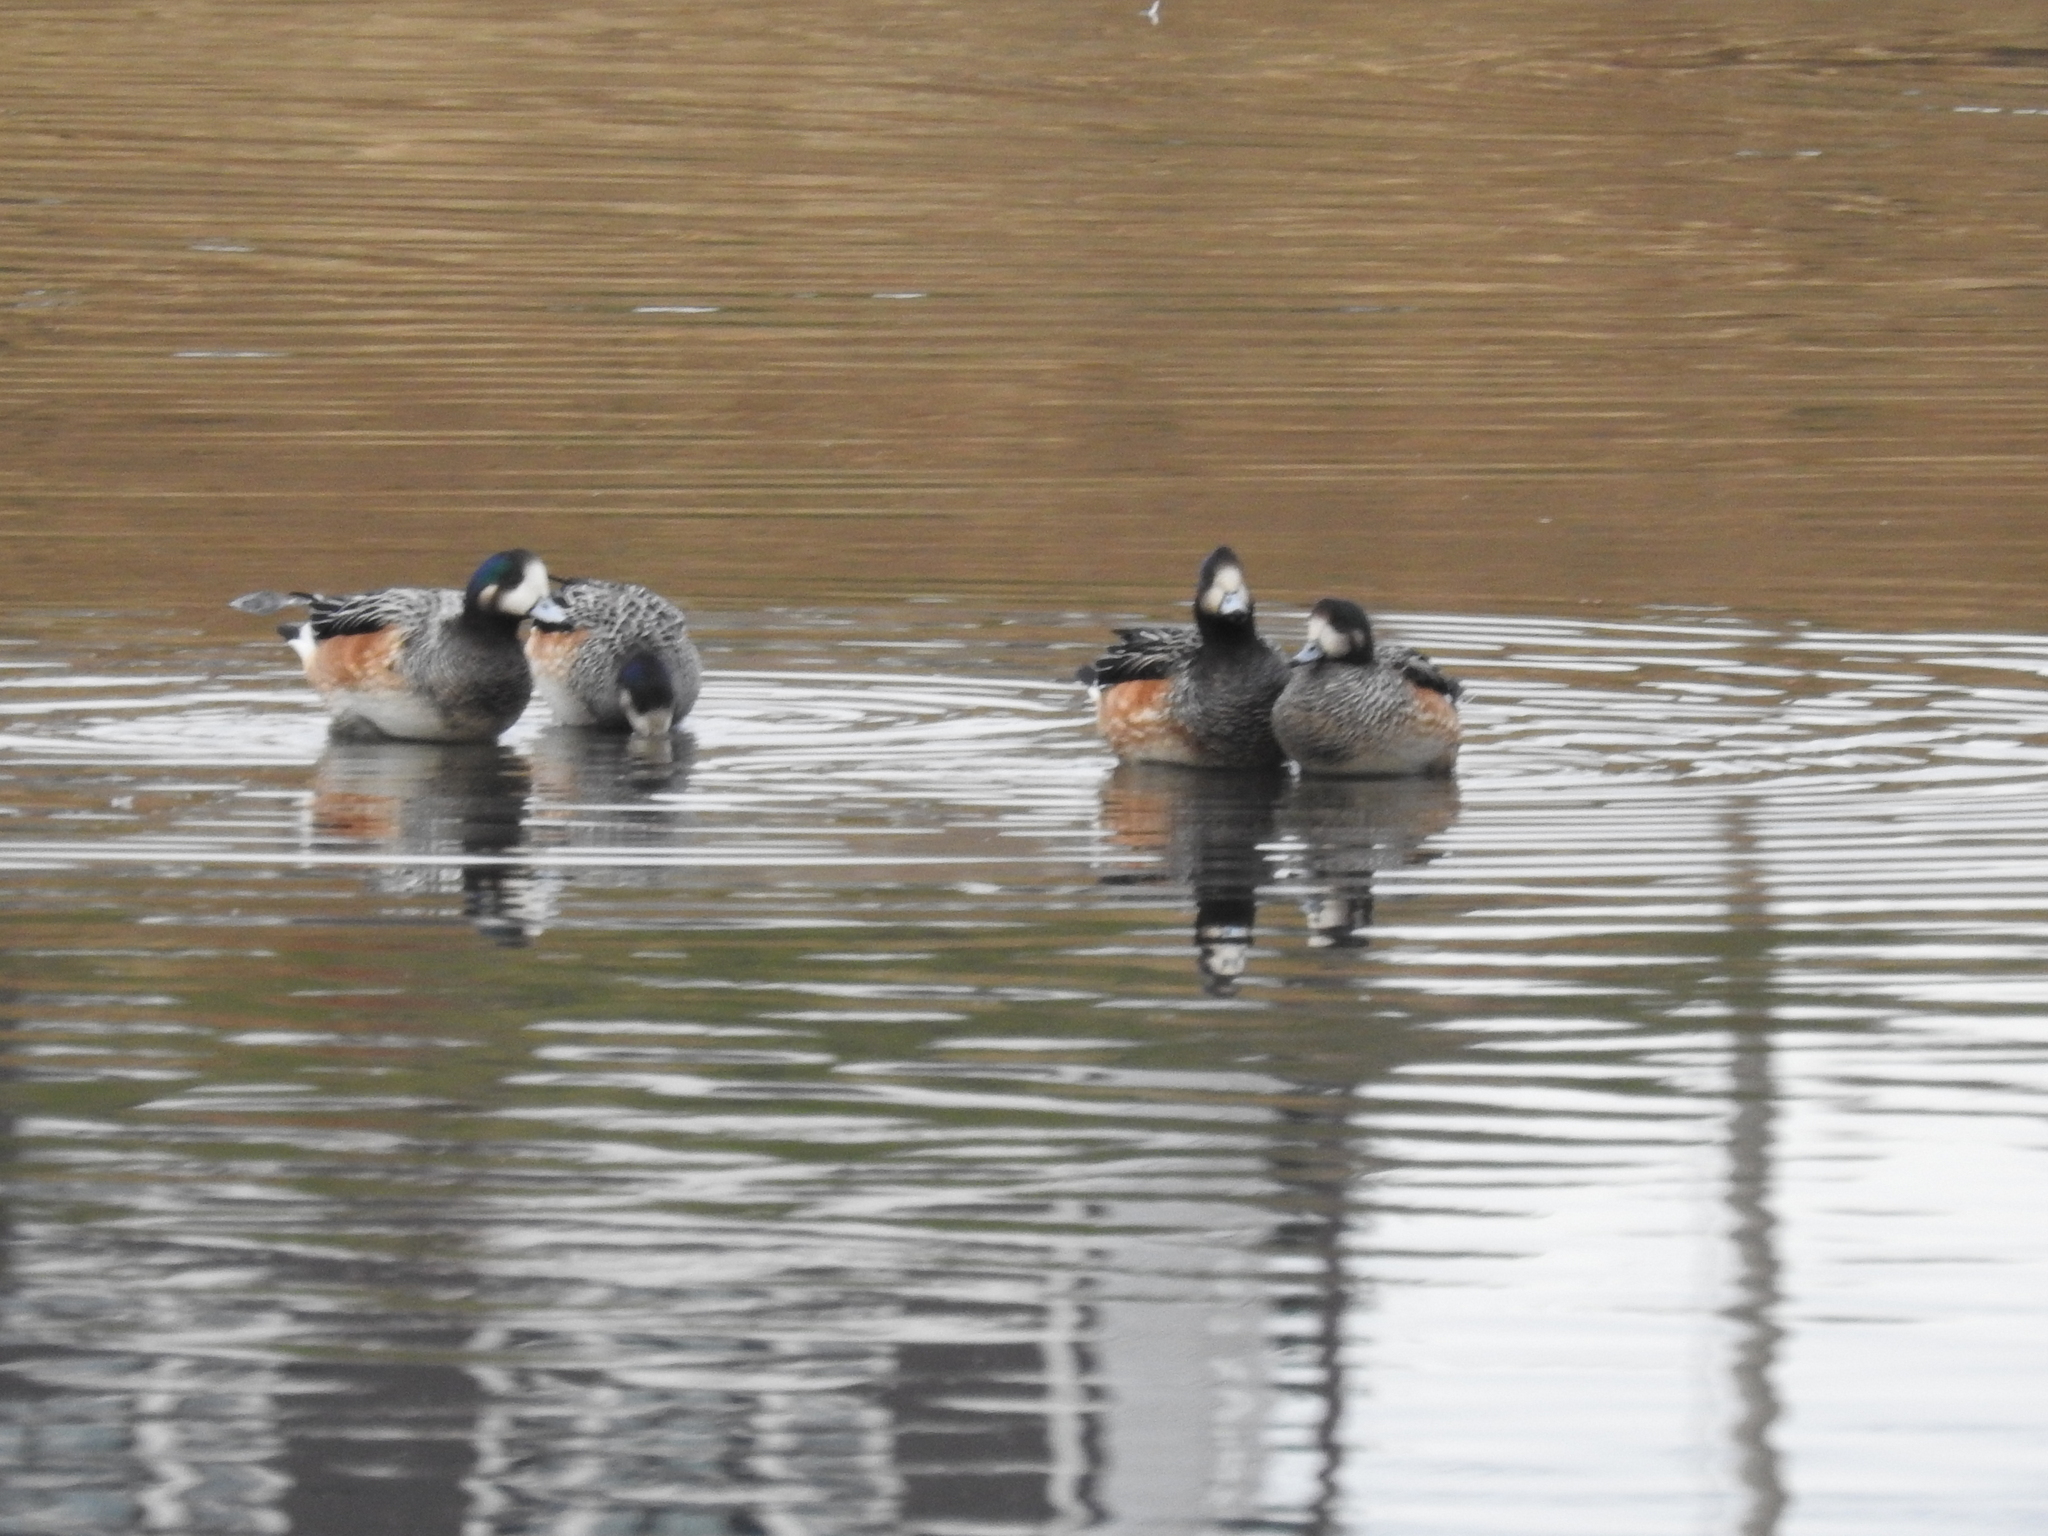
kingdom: Animalia
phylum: Chordata
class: Aves
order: Anseriformes
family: Anatidae
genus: Mareca
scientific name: Mareca sibilatrix
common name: Chiloe wigeon
